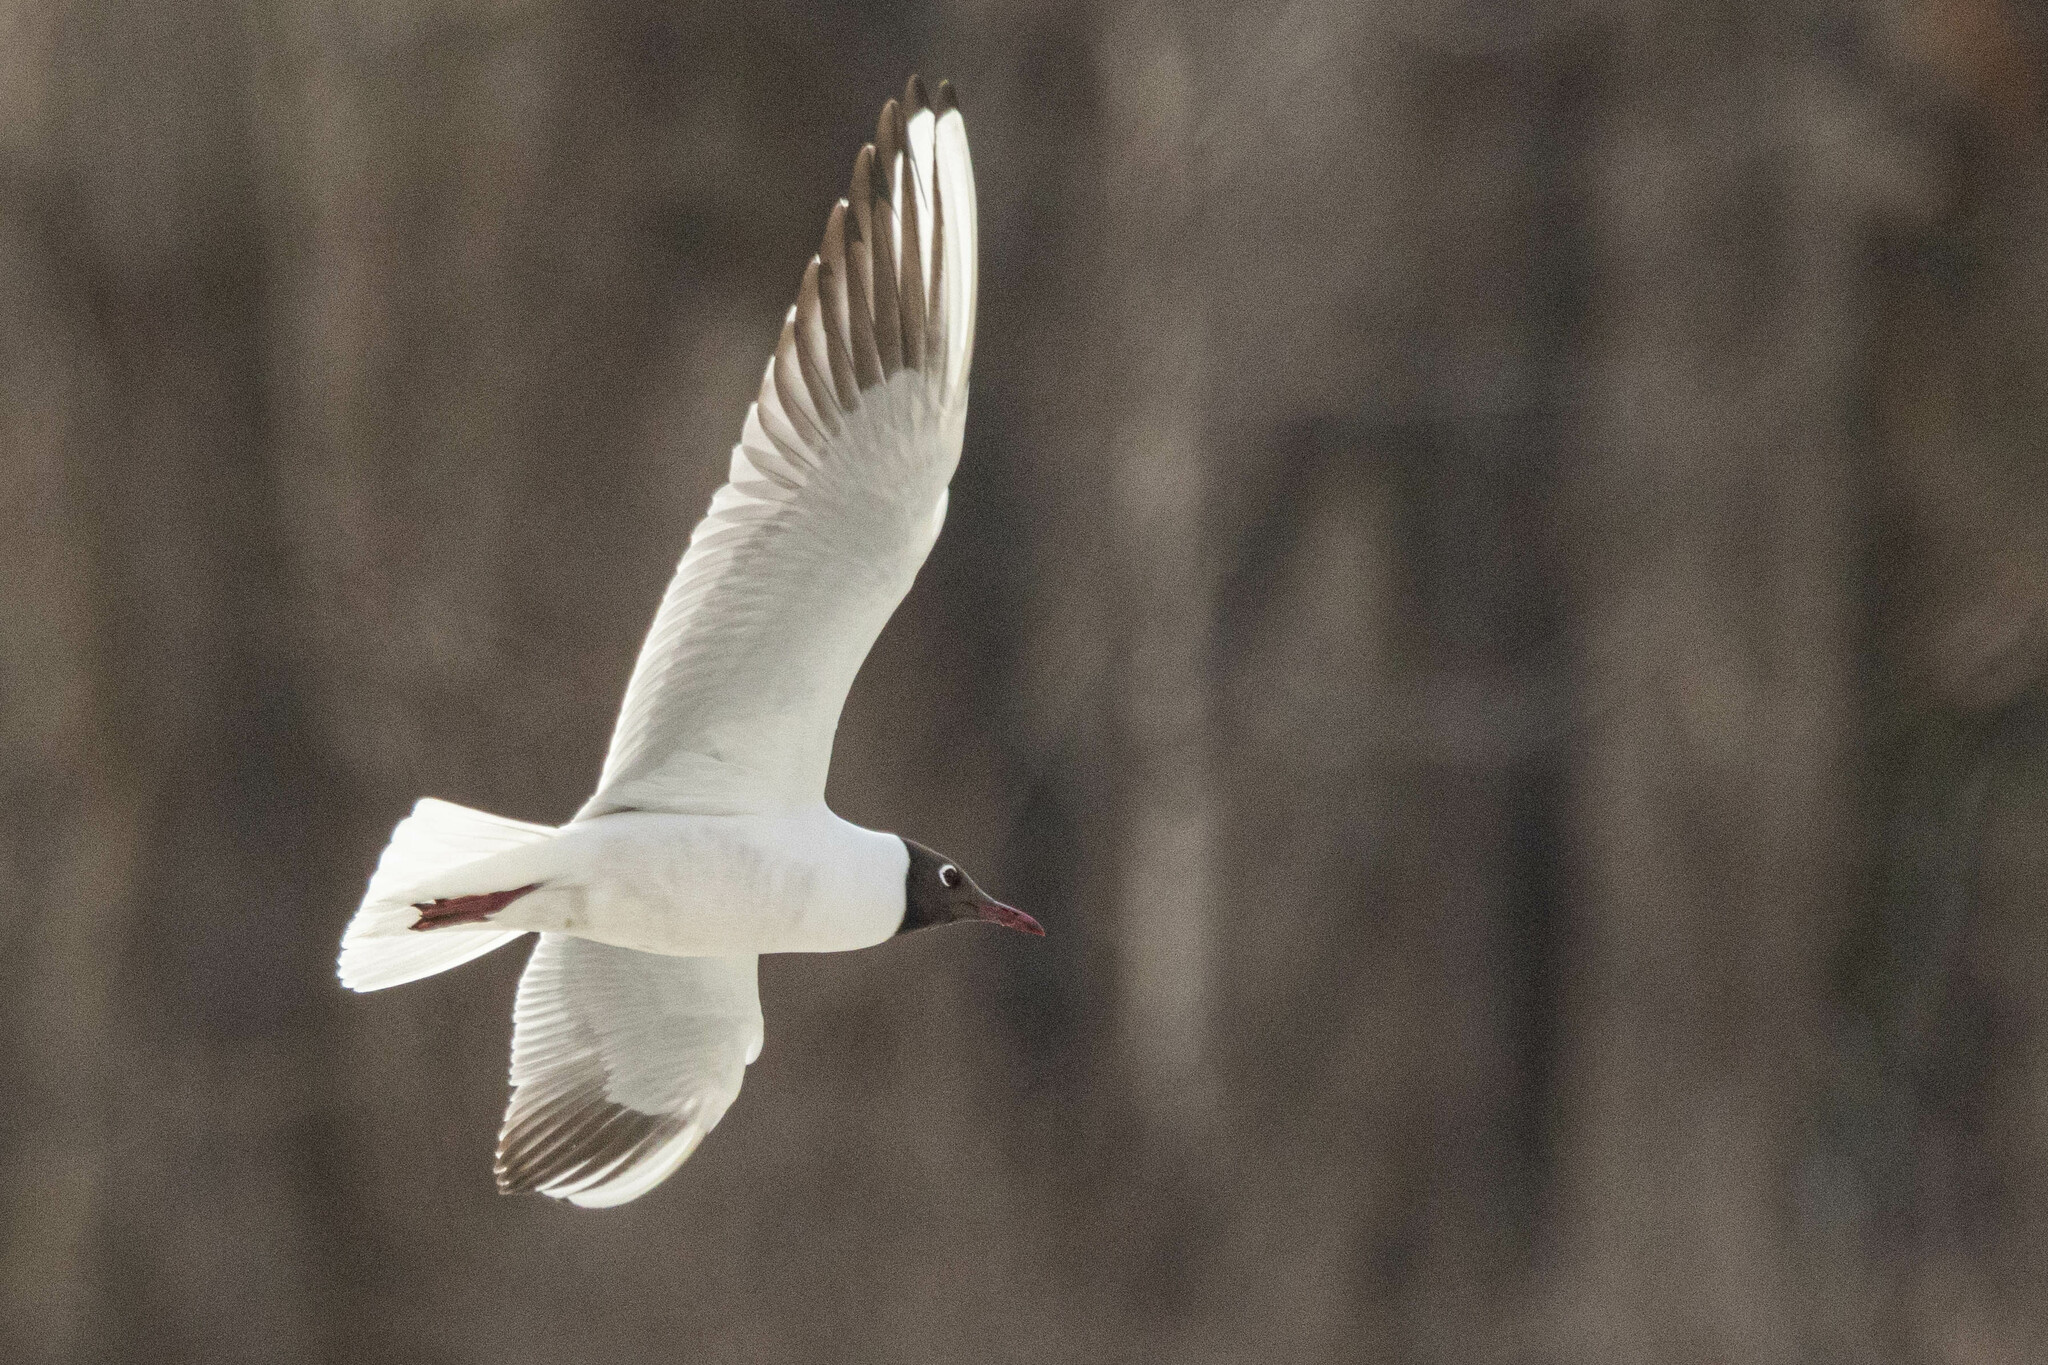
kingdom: Animalia
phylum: Chordata
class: Aves
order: Charadriiformes
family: Laridae
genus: Chroicocephalus
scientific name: Chroicocephalus ridibundus
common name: Black-headed gull
